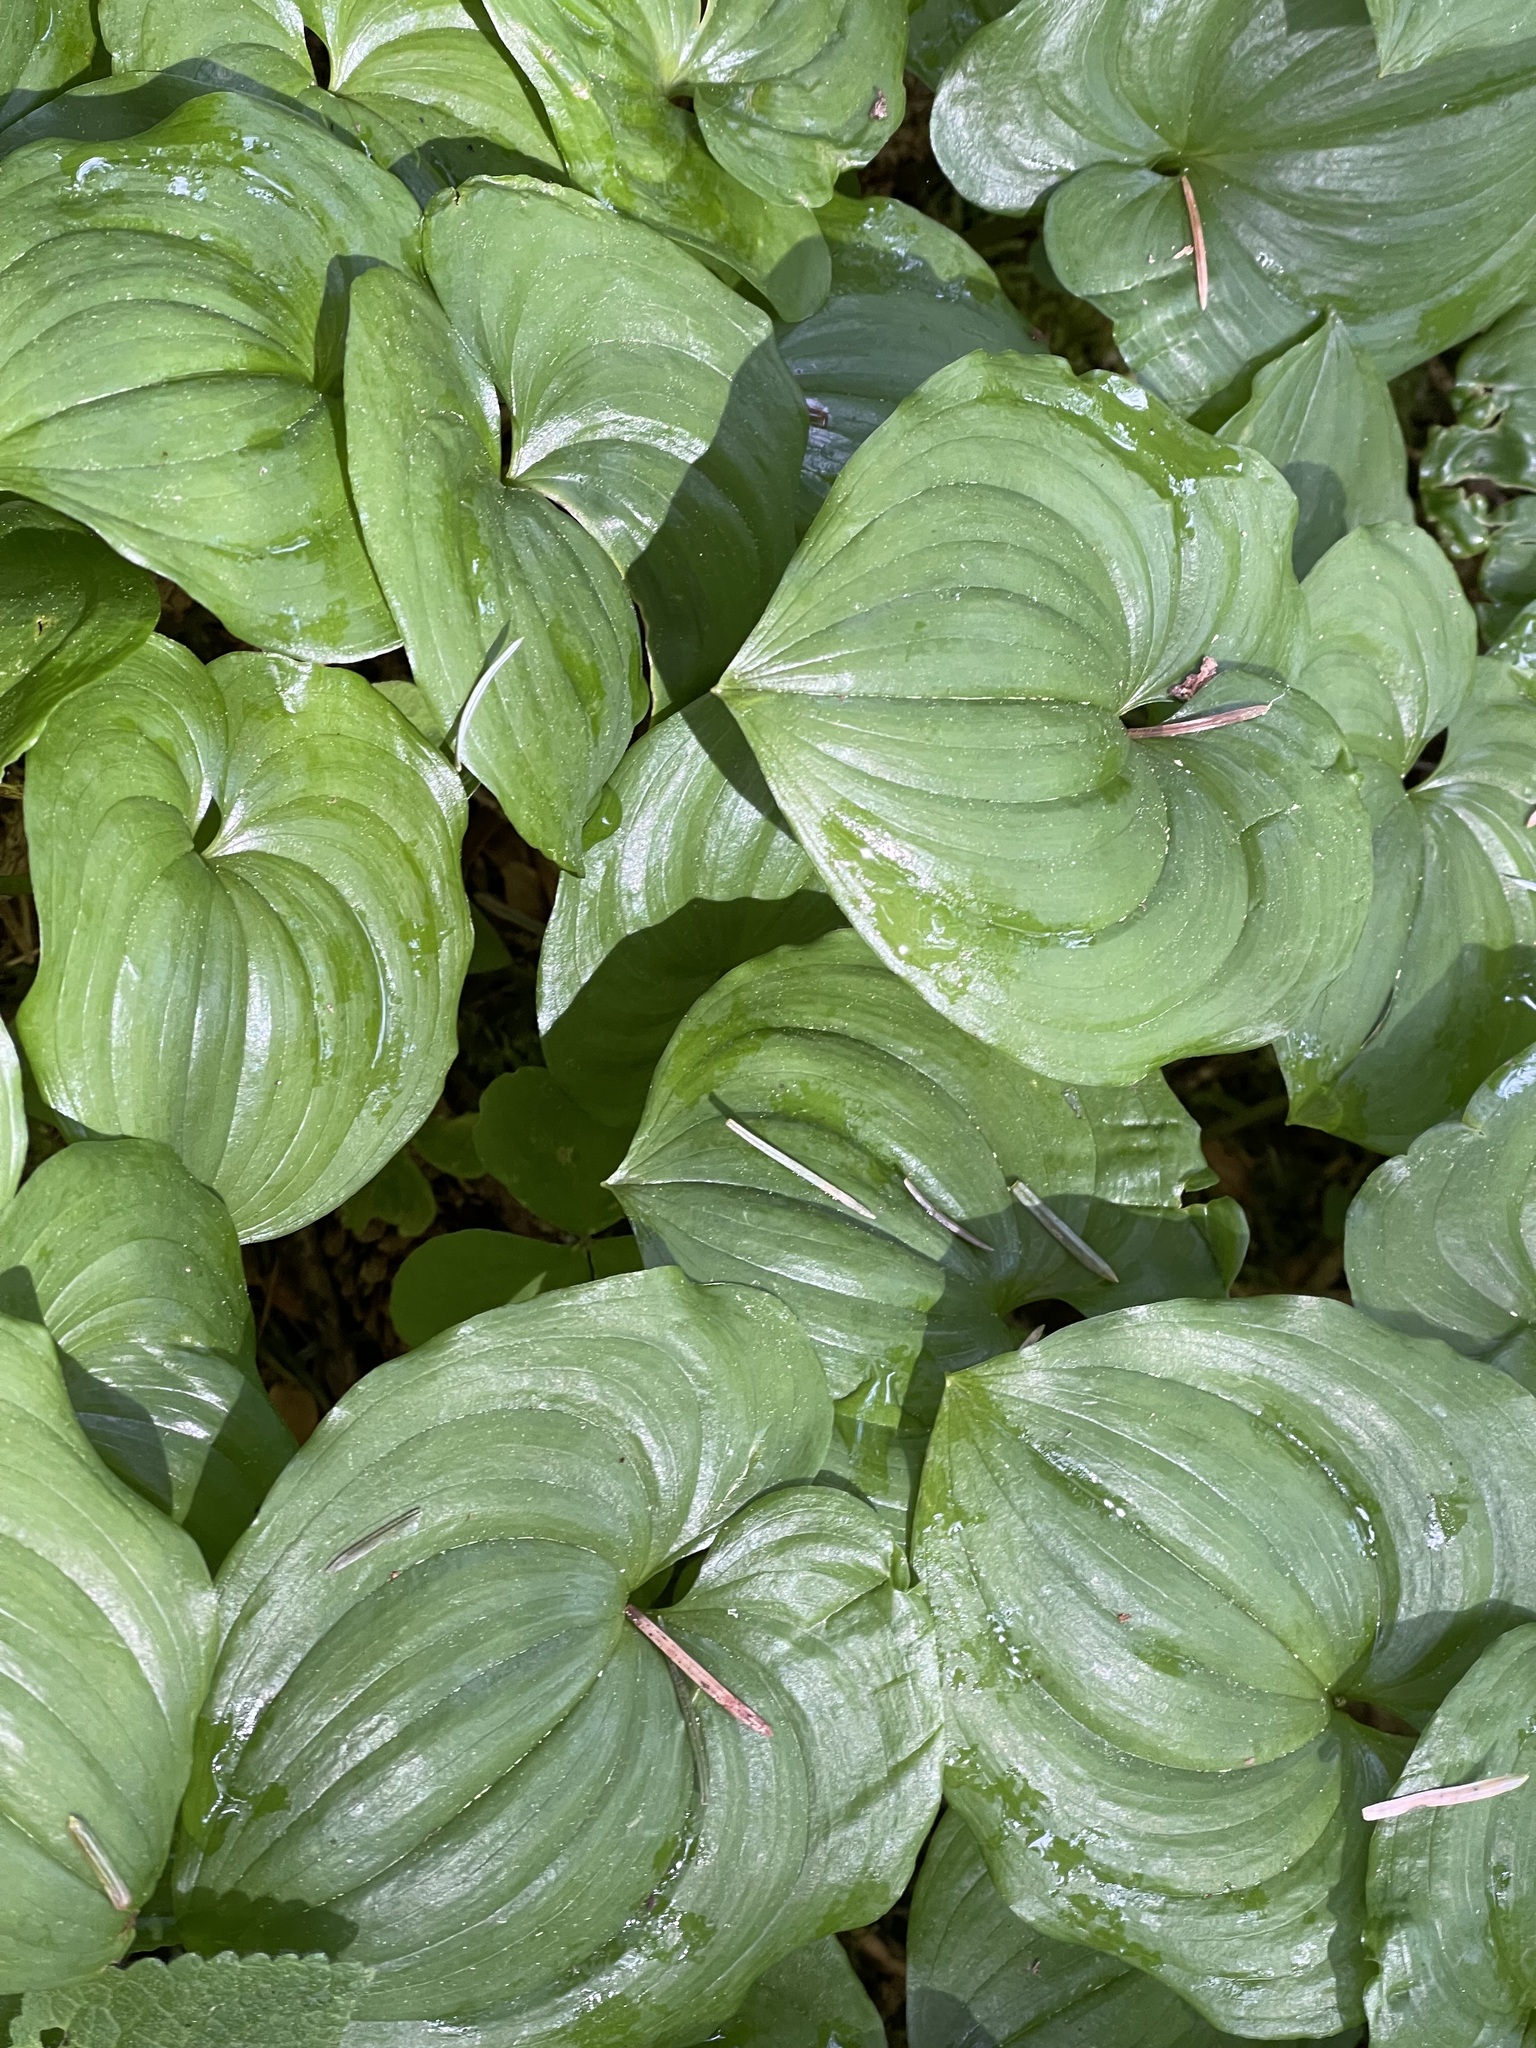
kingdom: Plantae
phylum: Tracheophyta
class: Liliopsida
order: Asparagales
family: Asparagaceae
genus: Maianthemum
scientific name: Maianthemum dilatatum
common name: False lily-of-the-valley
